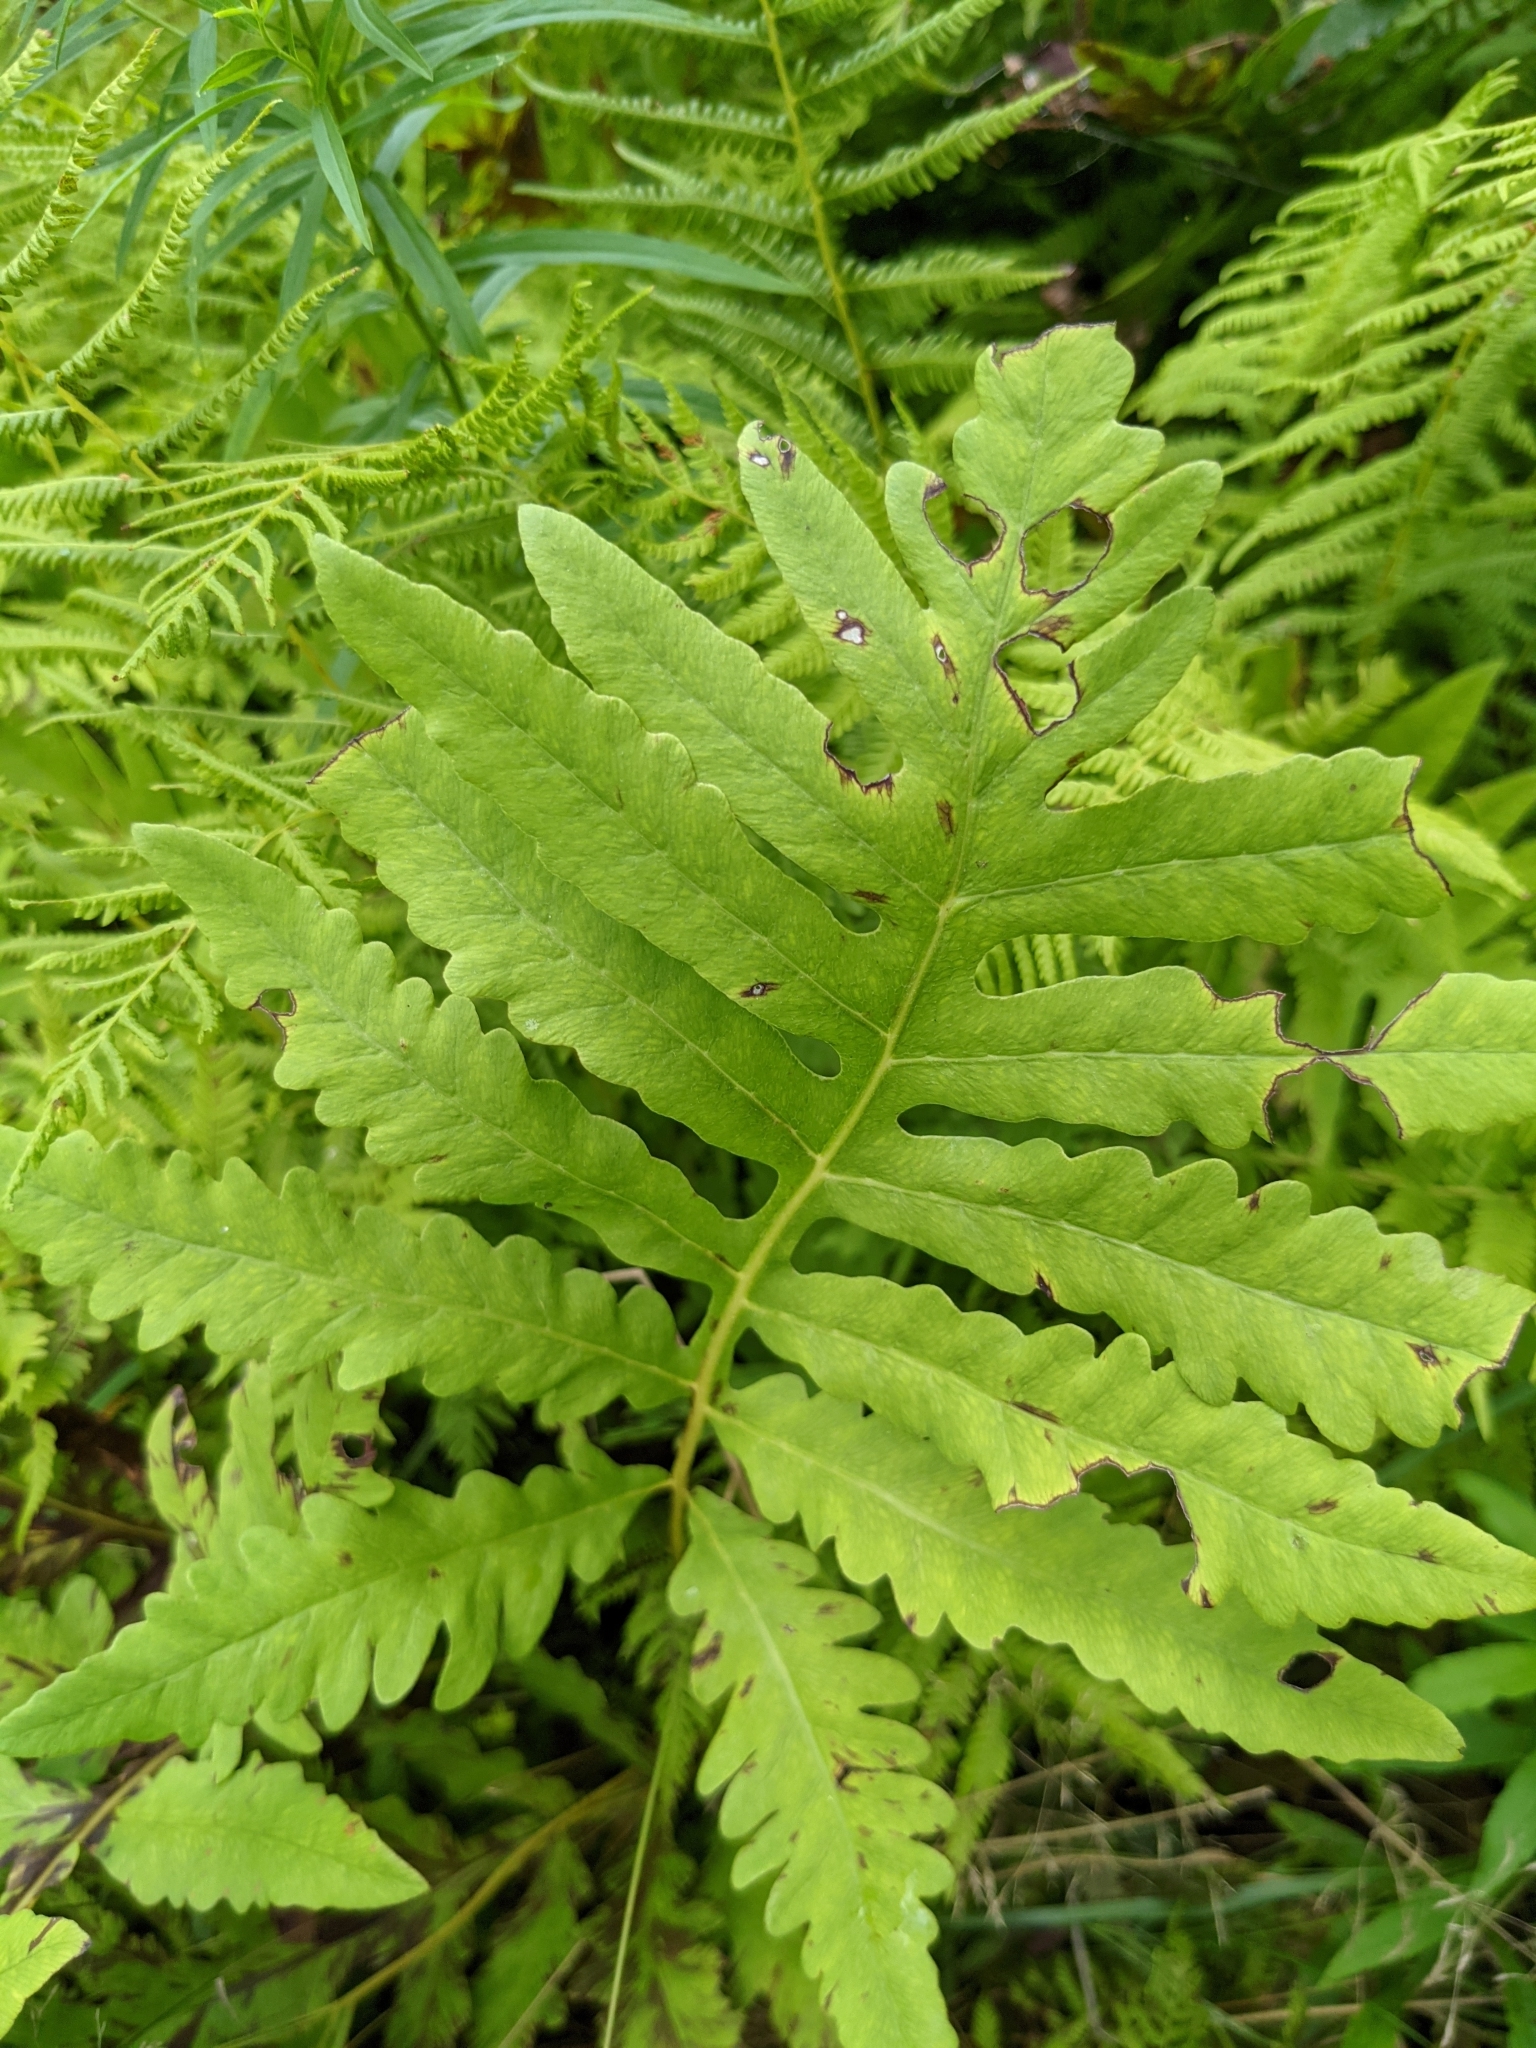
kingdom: Plantae
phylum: Tracheophyta
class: Polypodiopsida
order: Polypodiales
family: Onocleaceae
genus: Onoclea
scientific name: Onoclea sensibilis
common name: Sensitive fern
